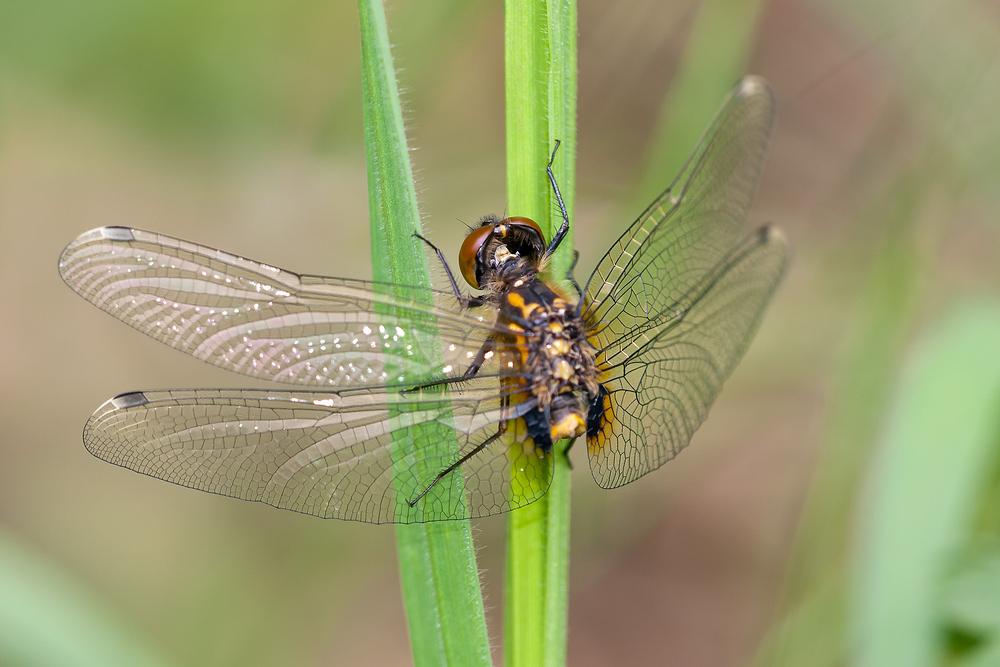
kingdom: Animalia
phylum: Arthropoda
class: Insecta
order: Odonata
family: Libellulidae
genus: Leucorrhinia
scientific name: Leucorrhinia caudalis
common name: Lilypad whiteface
